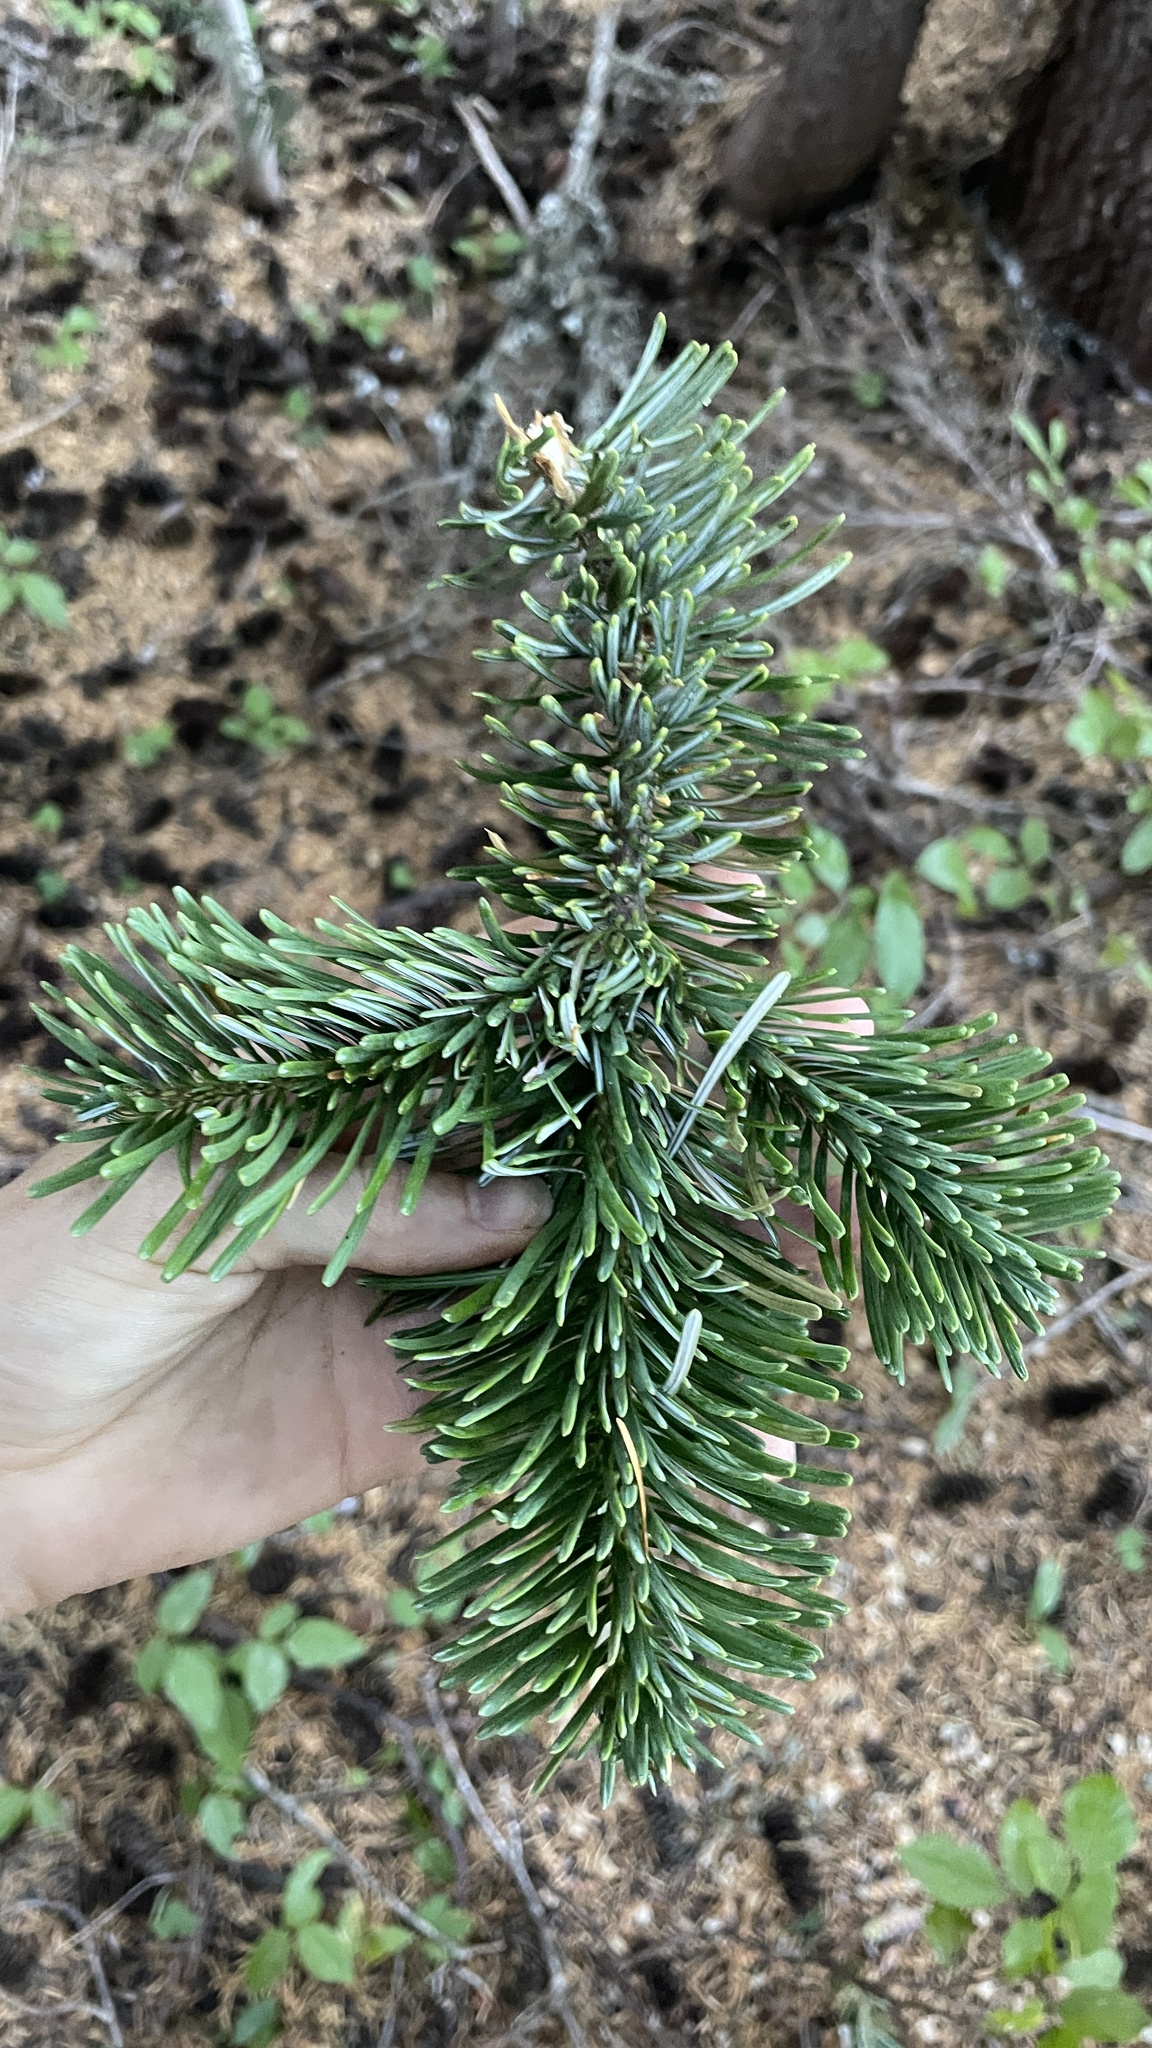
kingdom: Plantae
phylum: Tracheophyta
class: Pinopsida
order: Pinales
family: Pinaceae
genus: Abies
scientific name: Abies amabilis
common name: Pacific silver fir
